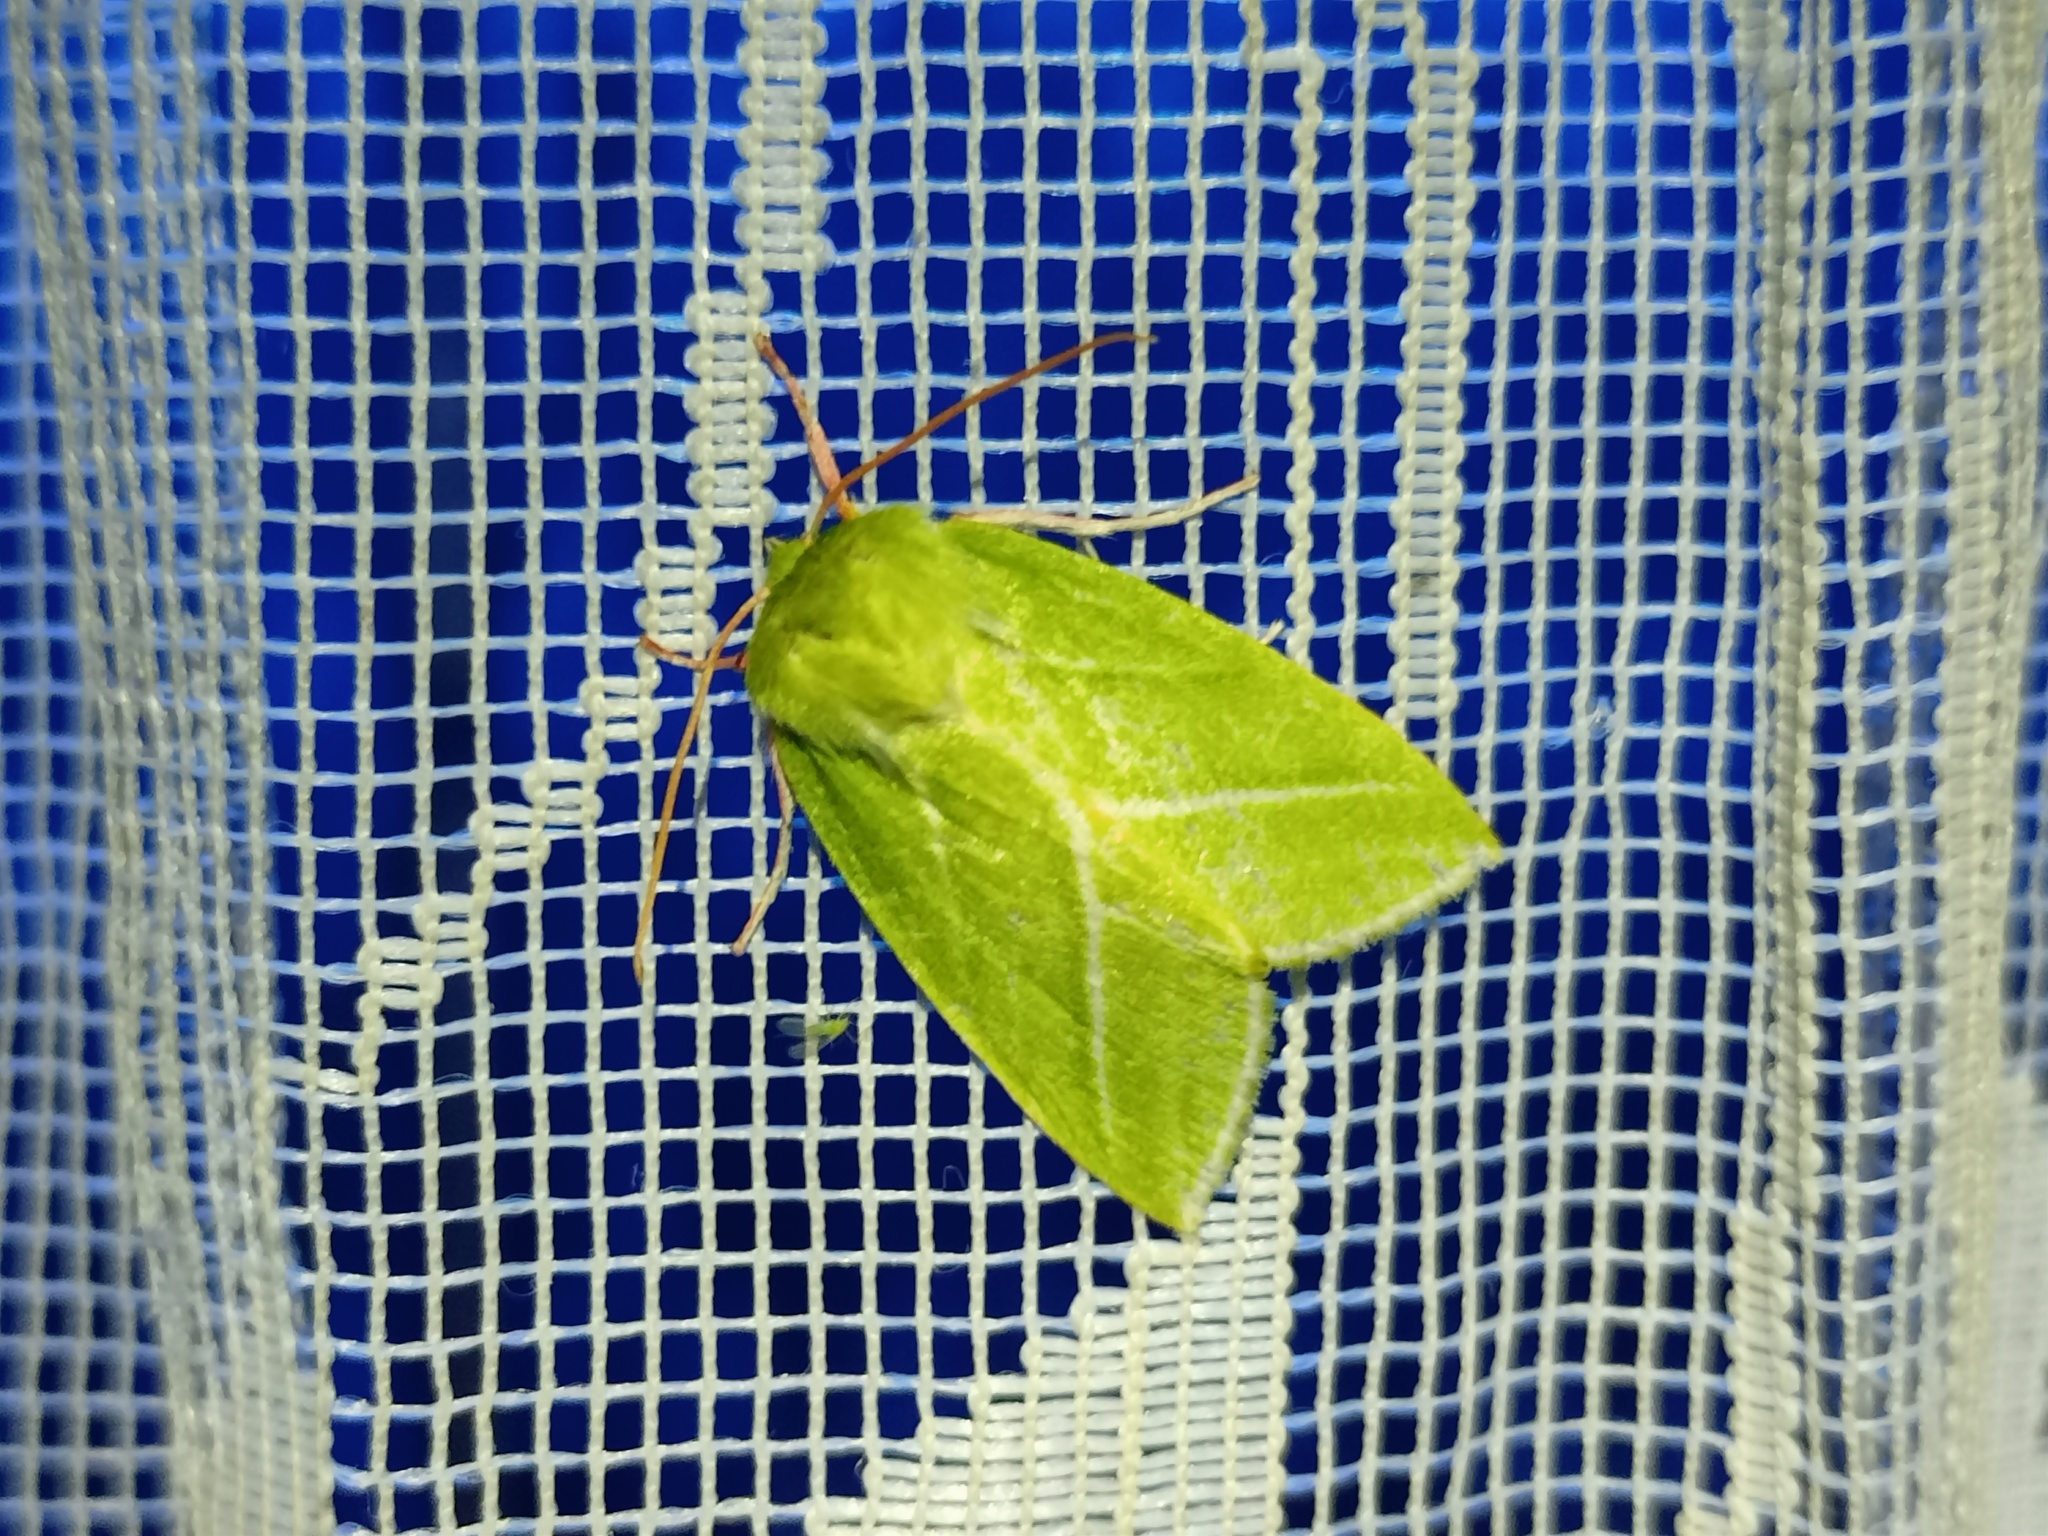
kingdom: Animalia
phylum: Arthropoda
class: Insecta
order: Lepidoptera
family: Nolidae
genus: Pseudoips
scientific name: Pseudoips prasinana
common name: Green silver-lines
